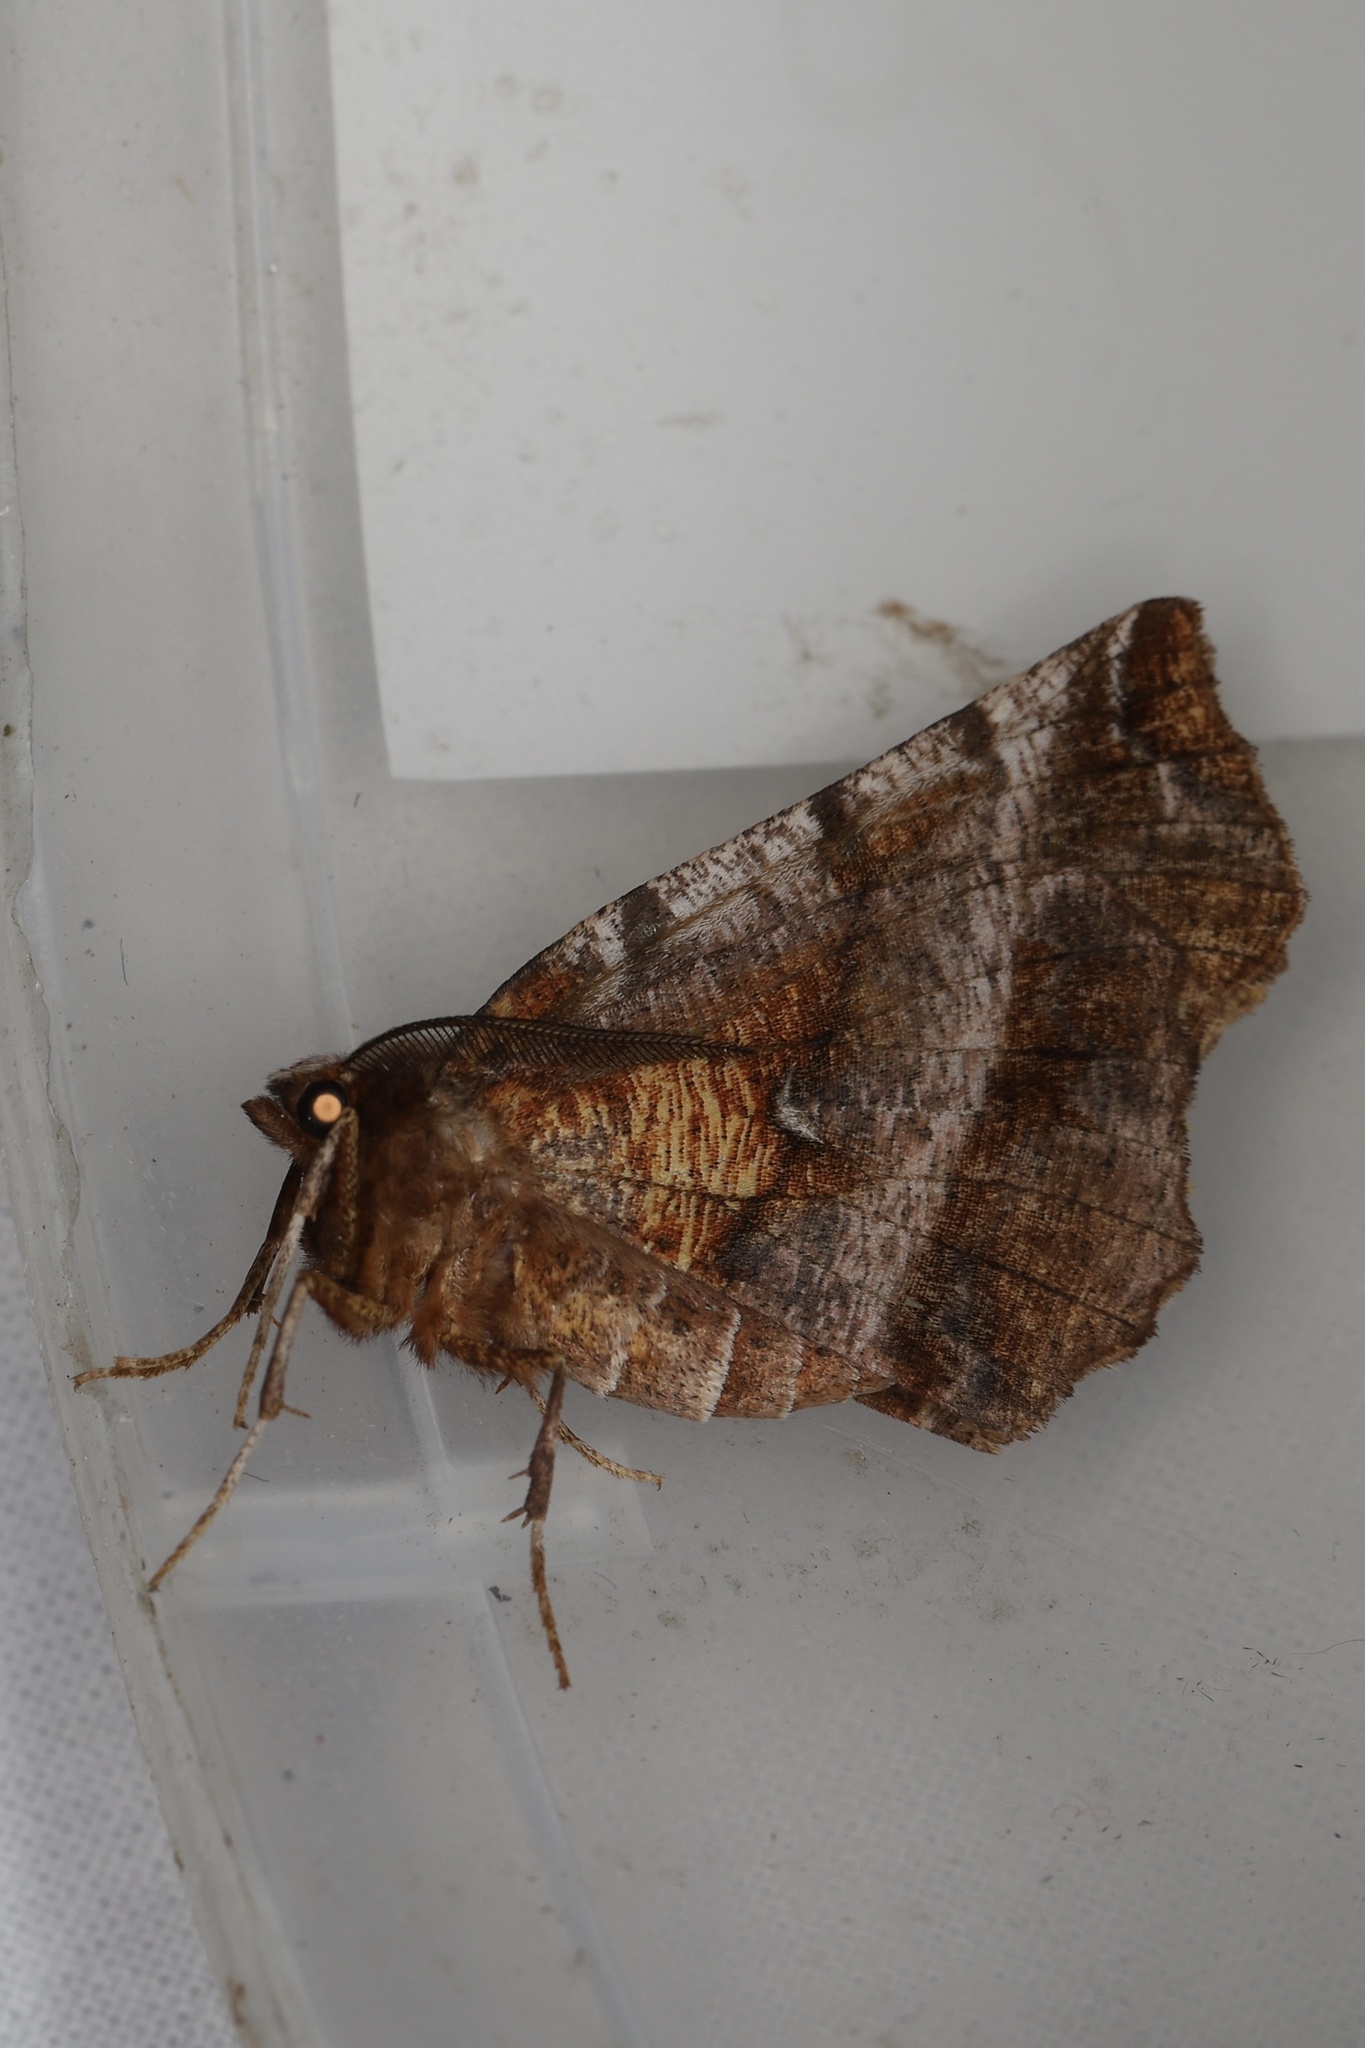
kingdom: Animalia
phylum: Arthropoda
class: Insecta
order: Lepidoptera
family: Geometridae
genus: Selenia
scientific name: Selenia dentaria
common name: Early thorn
